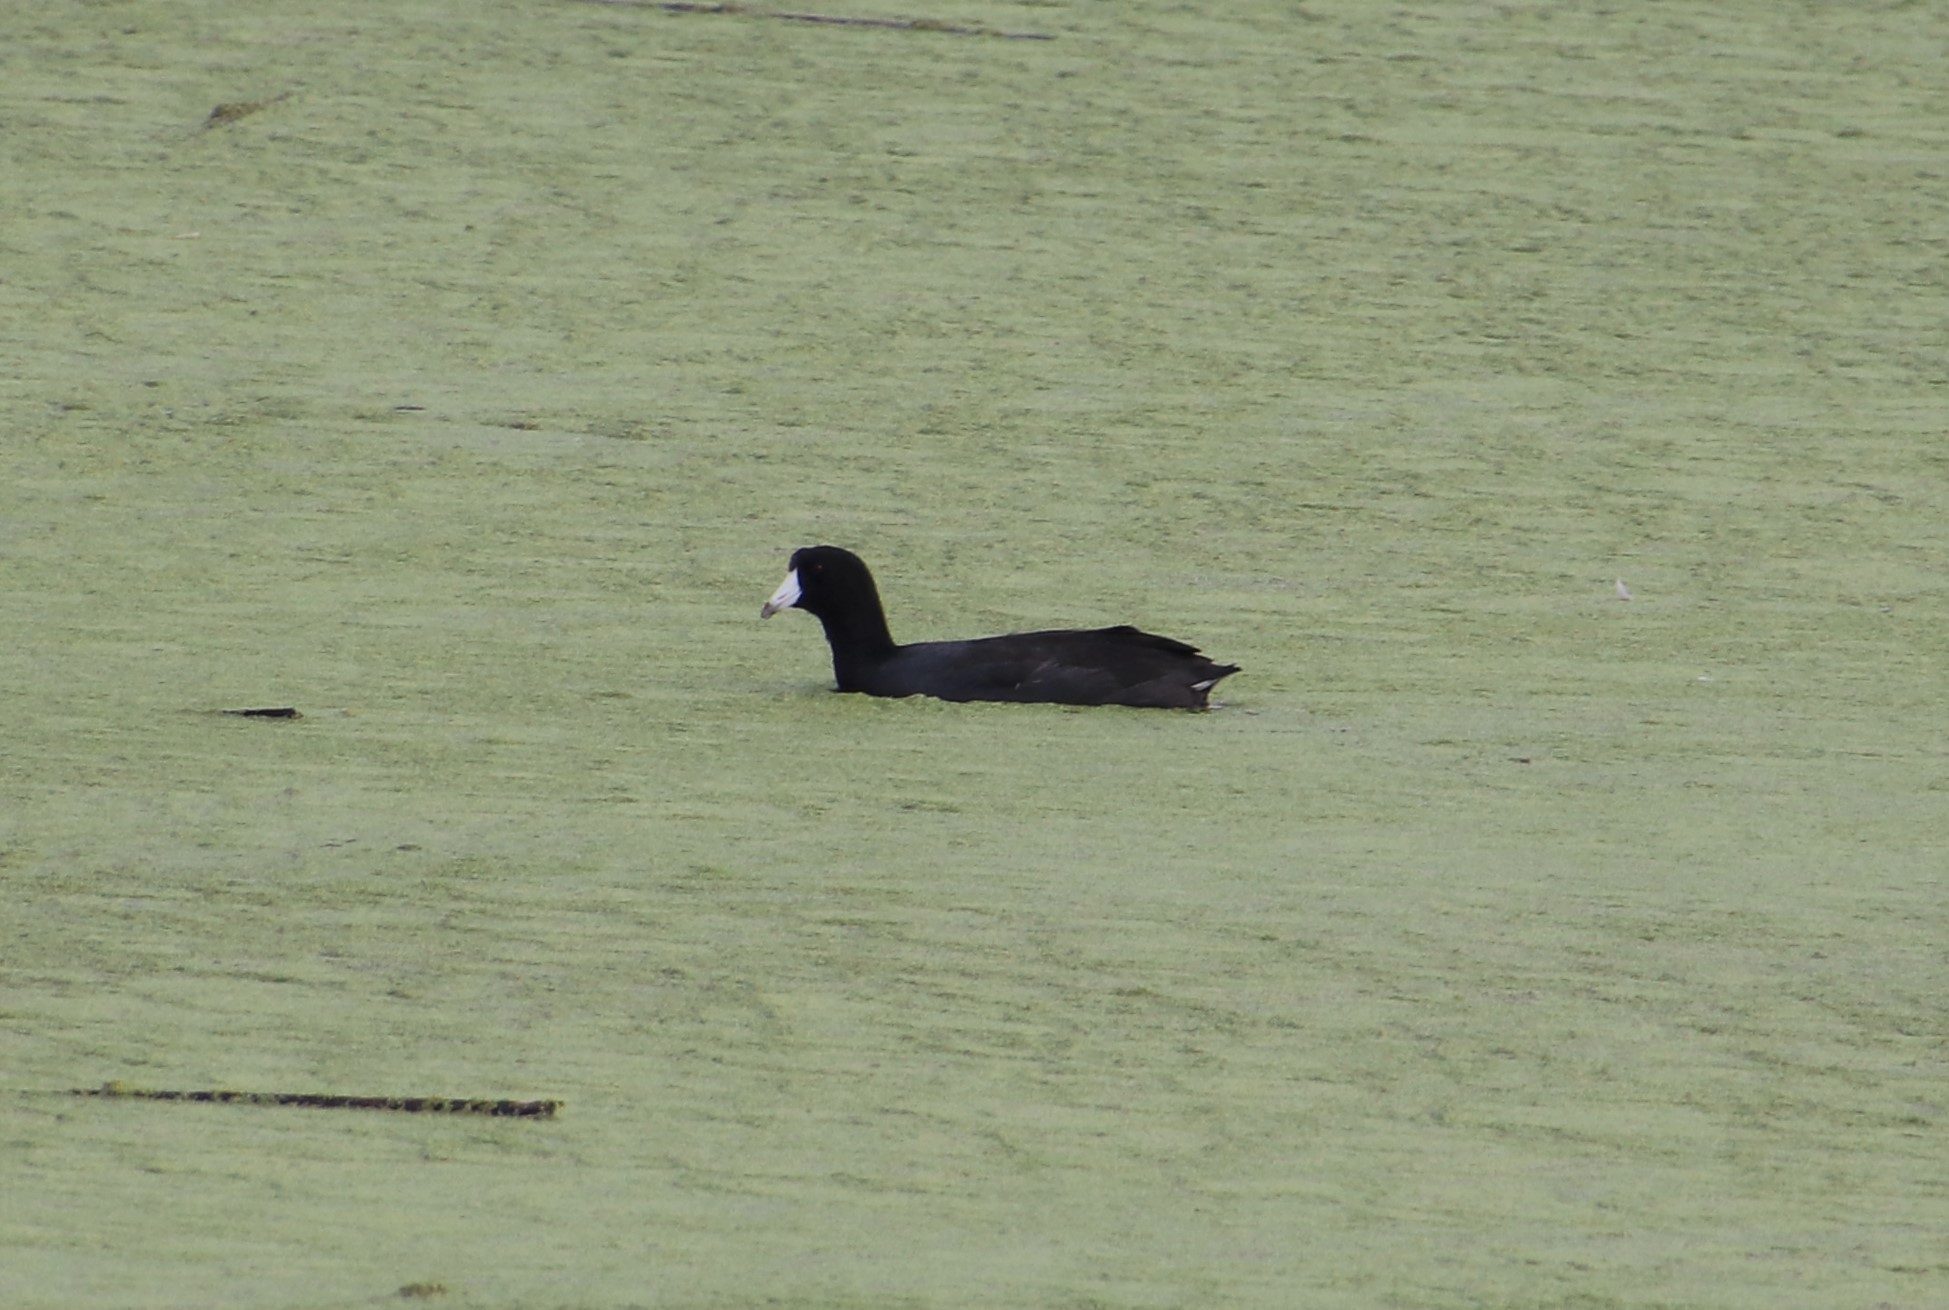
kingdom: Animalia
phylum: Chordata
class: Aves
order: Gruiformes
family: Rallidae
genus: Fulica
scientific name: Fulica americana
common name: American coot
